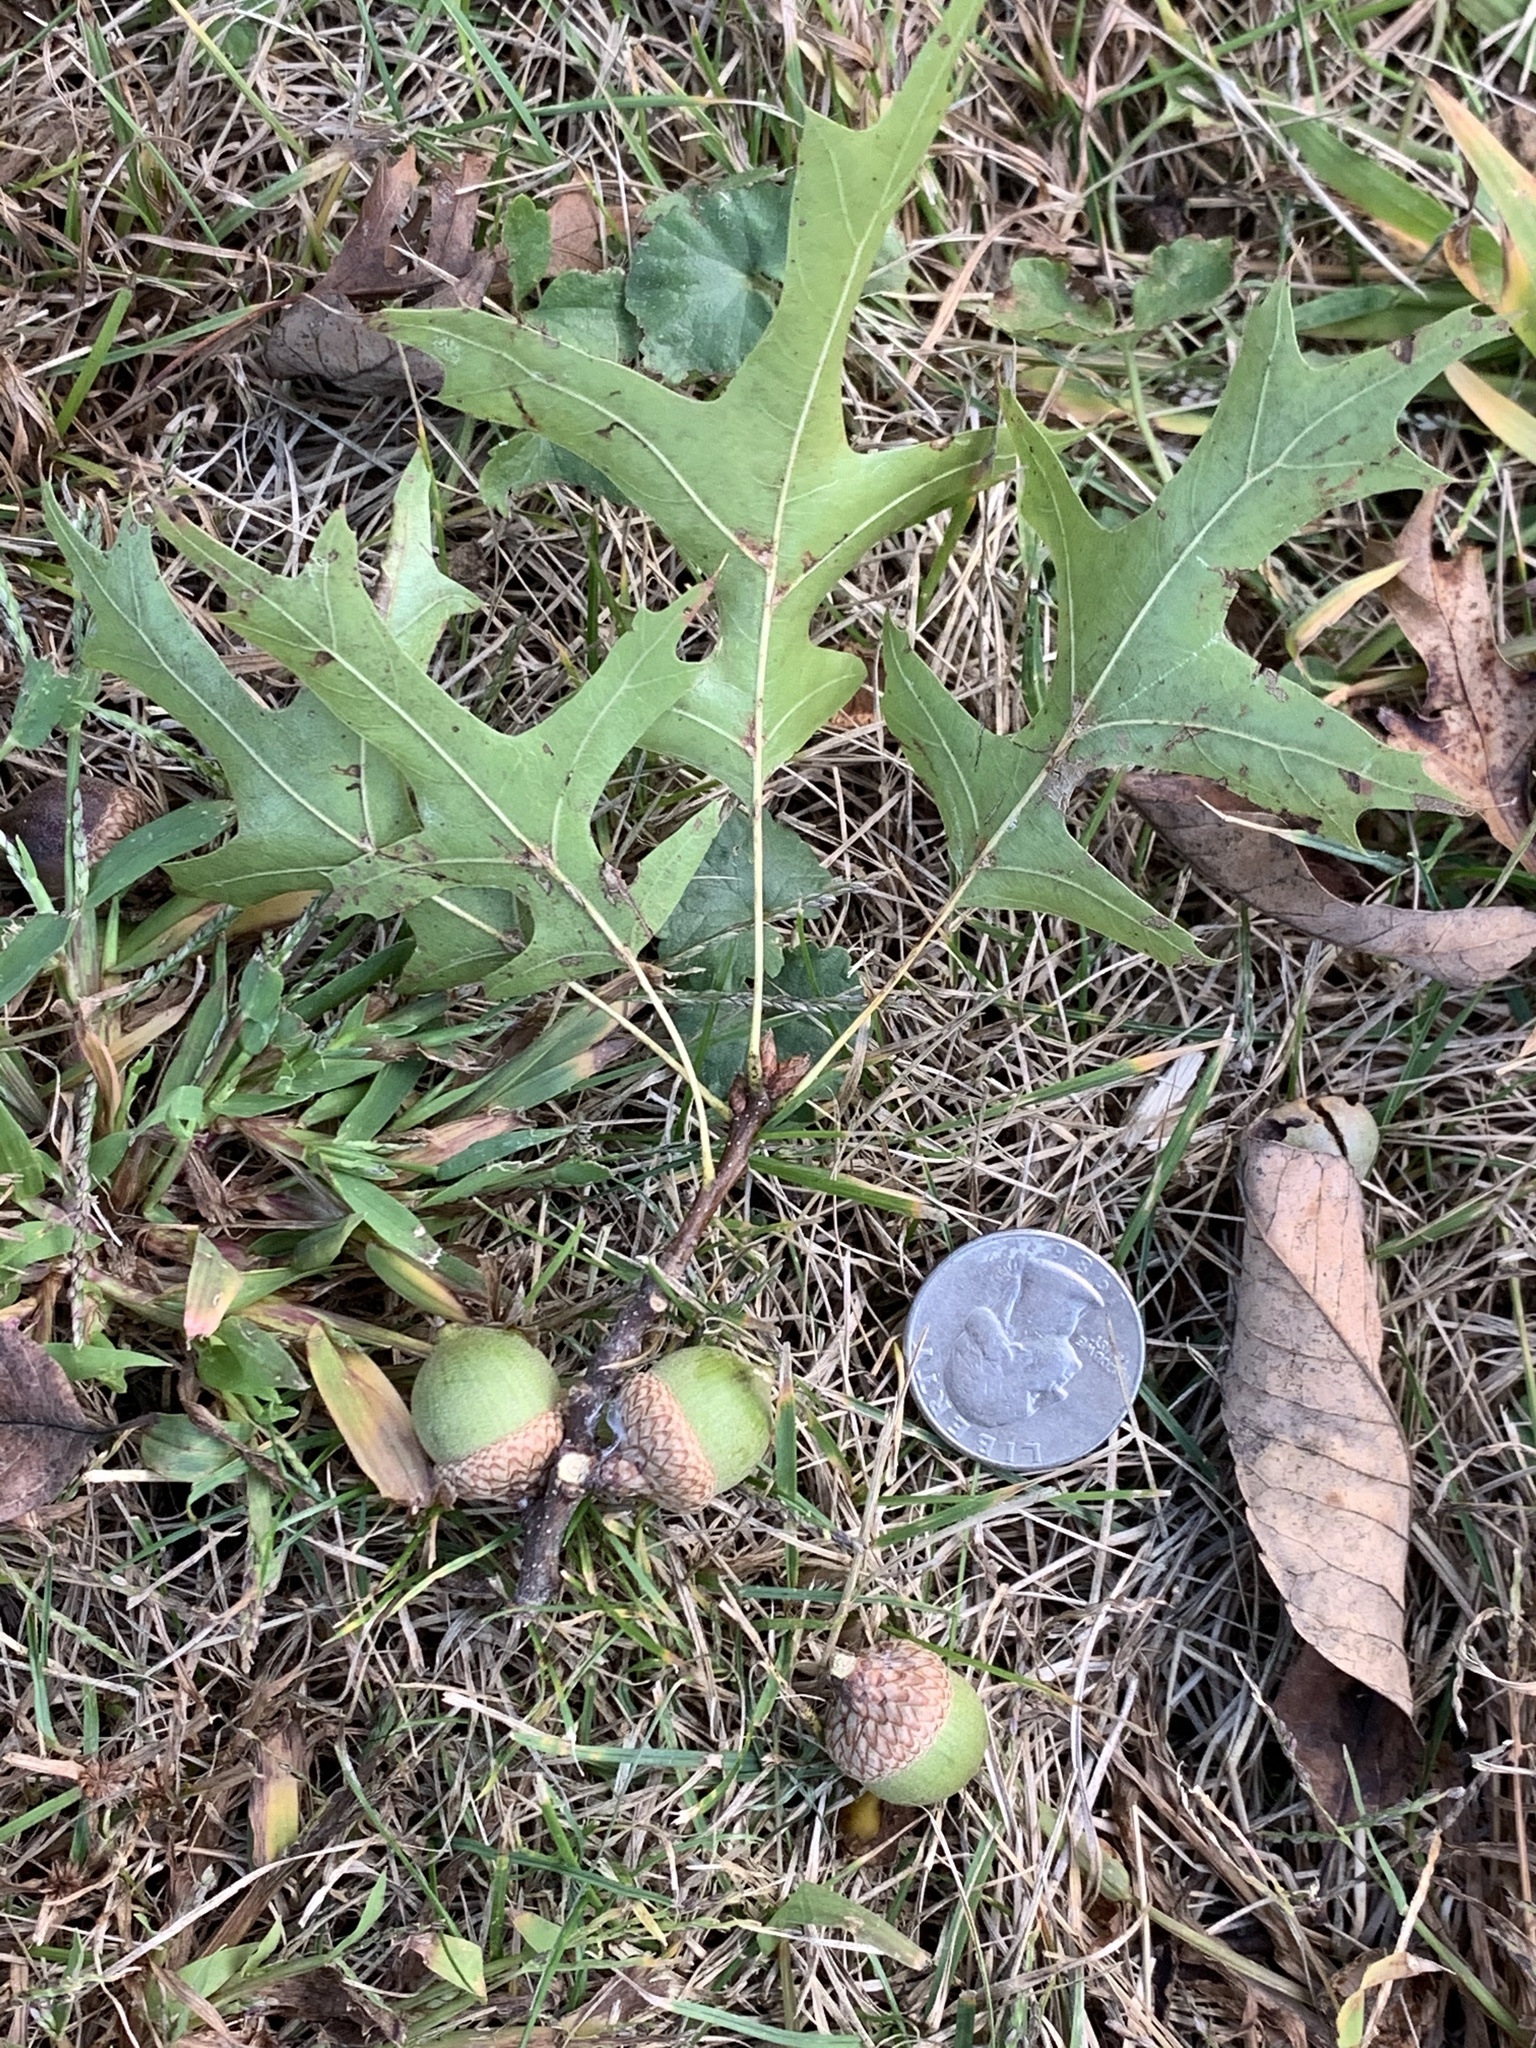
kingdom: Plantae
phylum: Tracheophyta
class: Magnoliopsida
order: Fagales
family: Fagaceae
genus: Quercus
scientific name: Quercus palustris
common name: Pin oak
